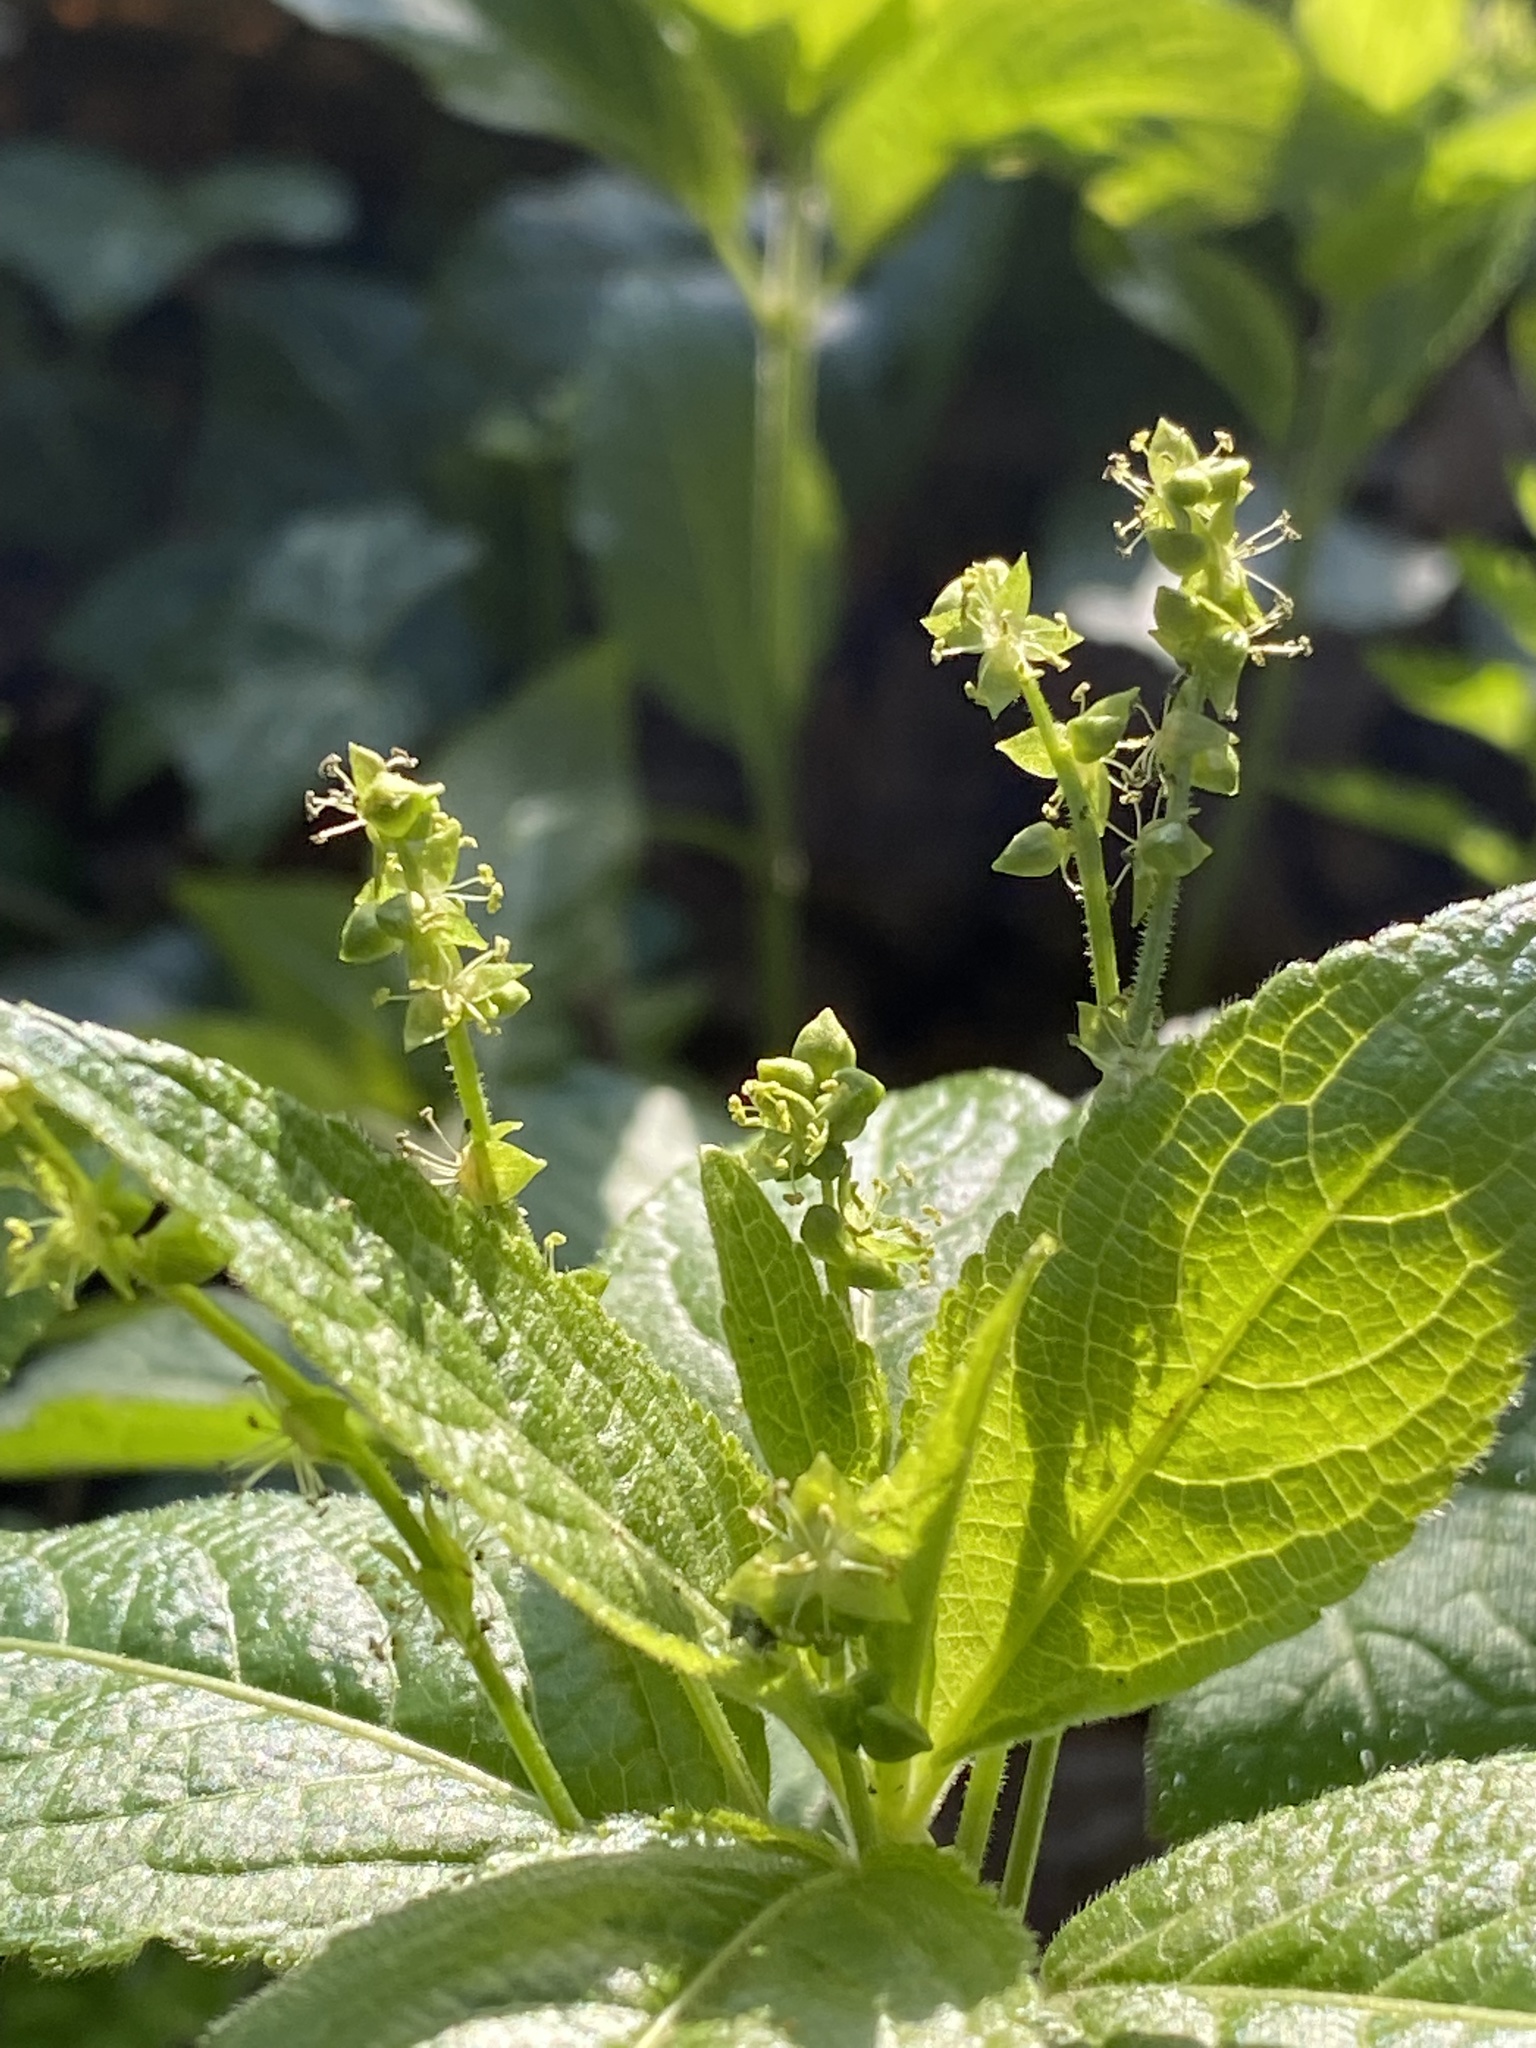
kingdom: Plantae
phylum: Tracheophyta
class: Magnoliopsida
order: Malpighiales
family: Euphorbiaceae
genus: Mercurialis
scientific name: Mercurialis perennis
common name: Dog mercury
